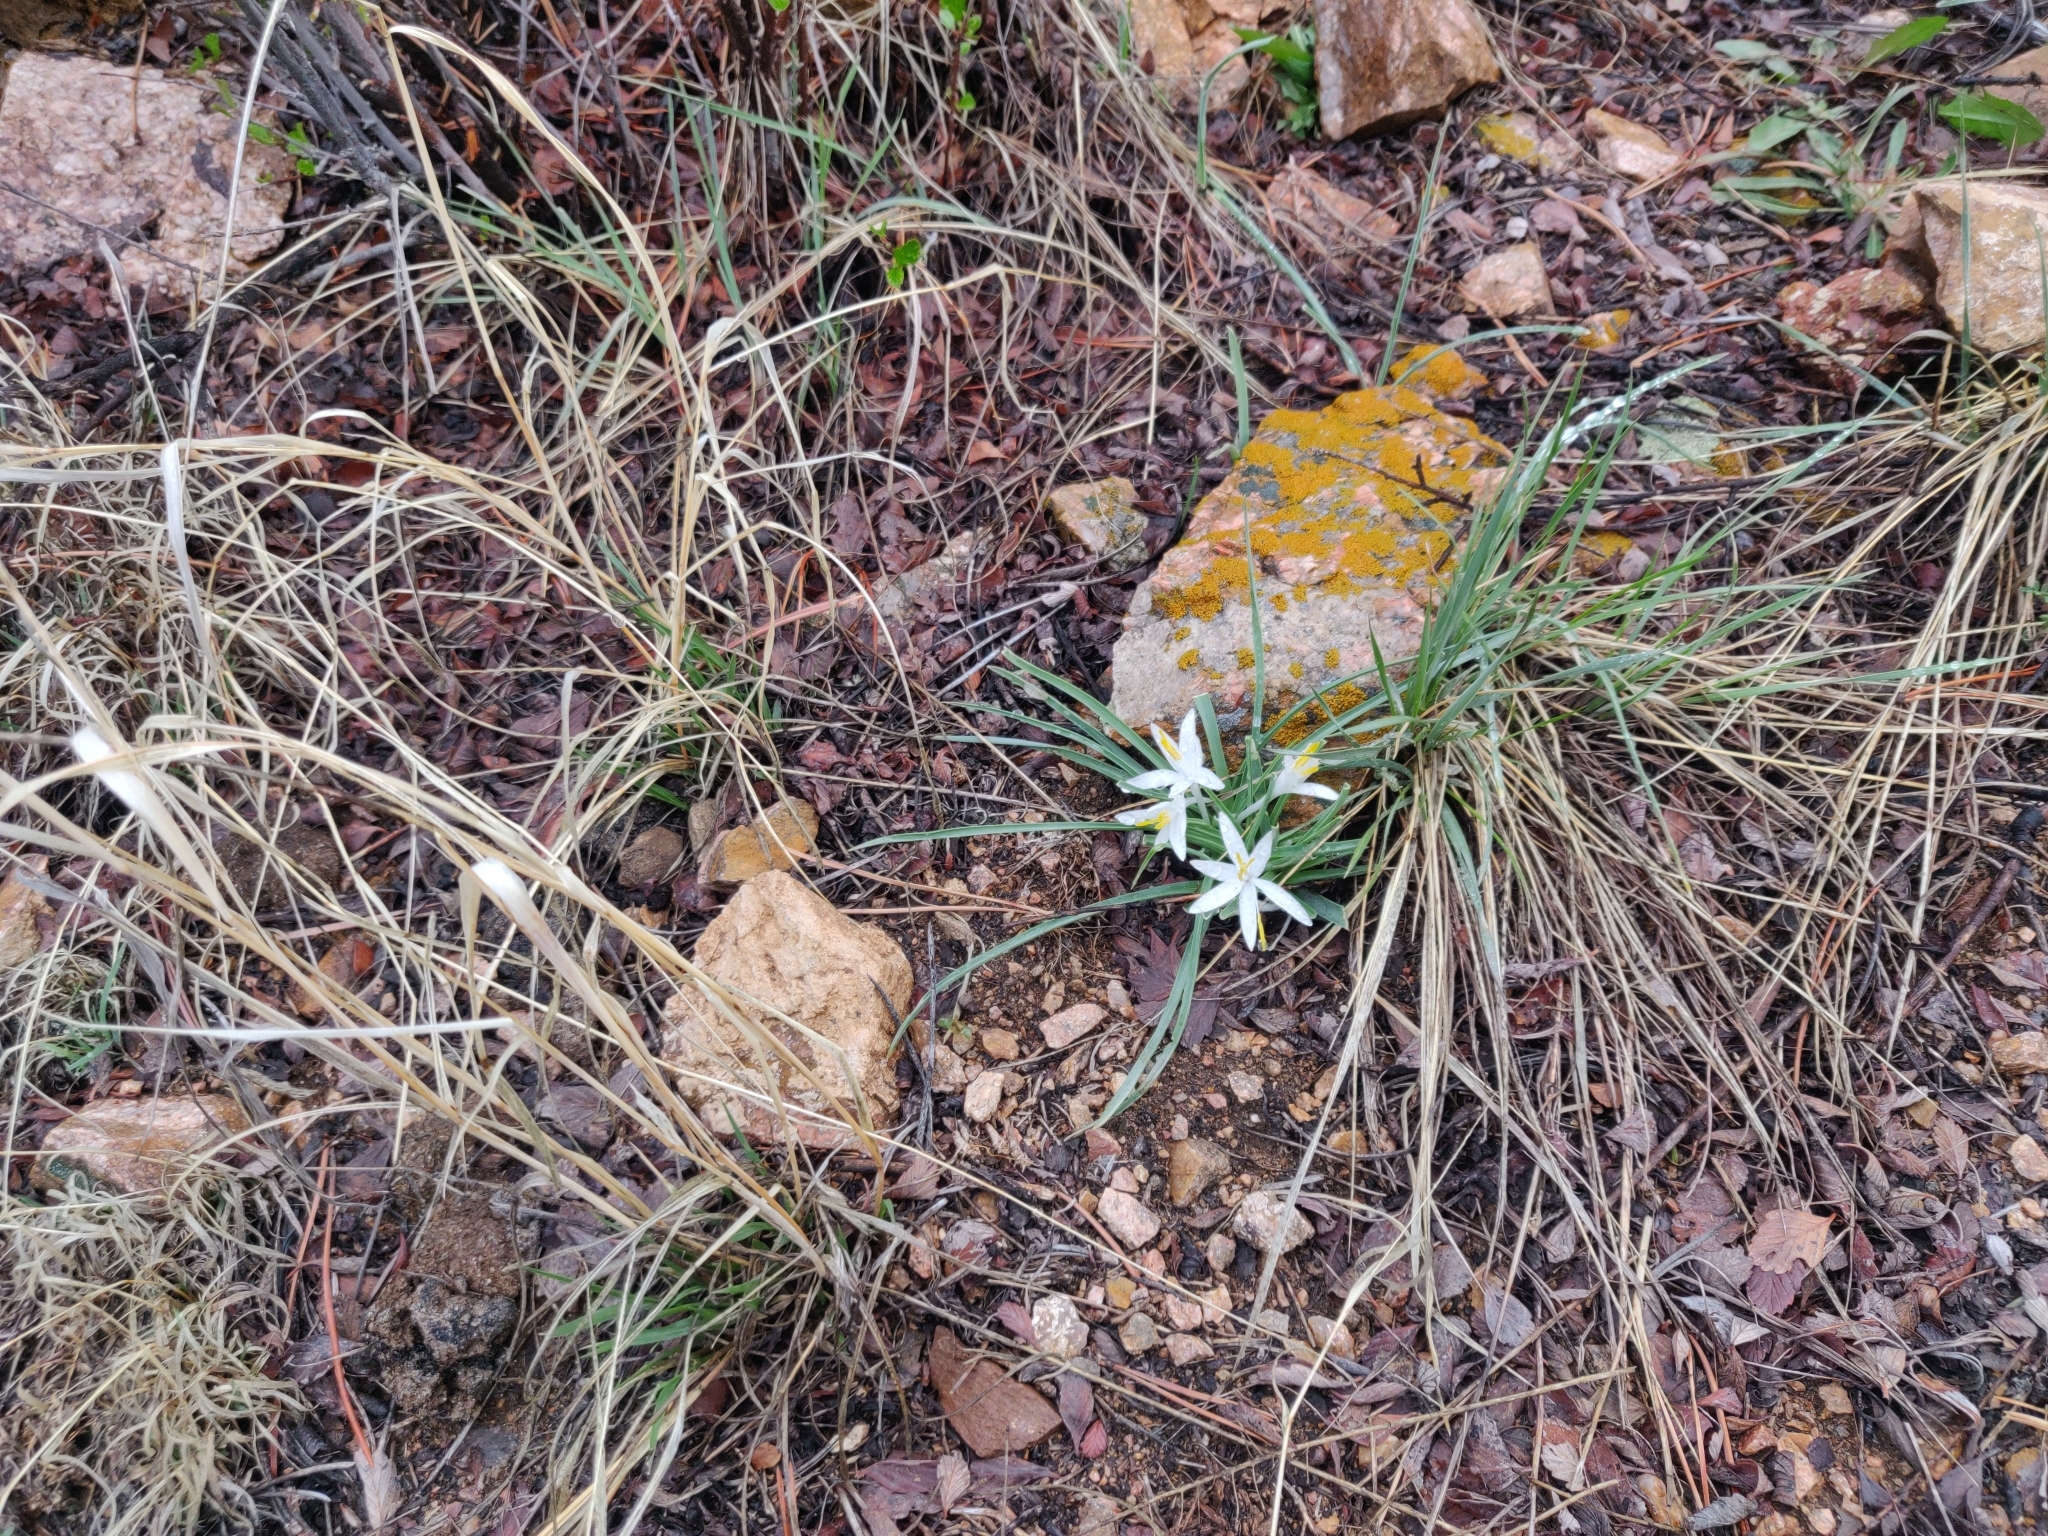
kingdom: Plantae
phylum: Tracheophyta
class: Liliopsida
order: Asparagales
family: Asparagaceae
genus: Leucocrinum
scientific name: Leucocrinum montanum
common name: Mountain-lily
